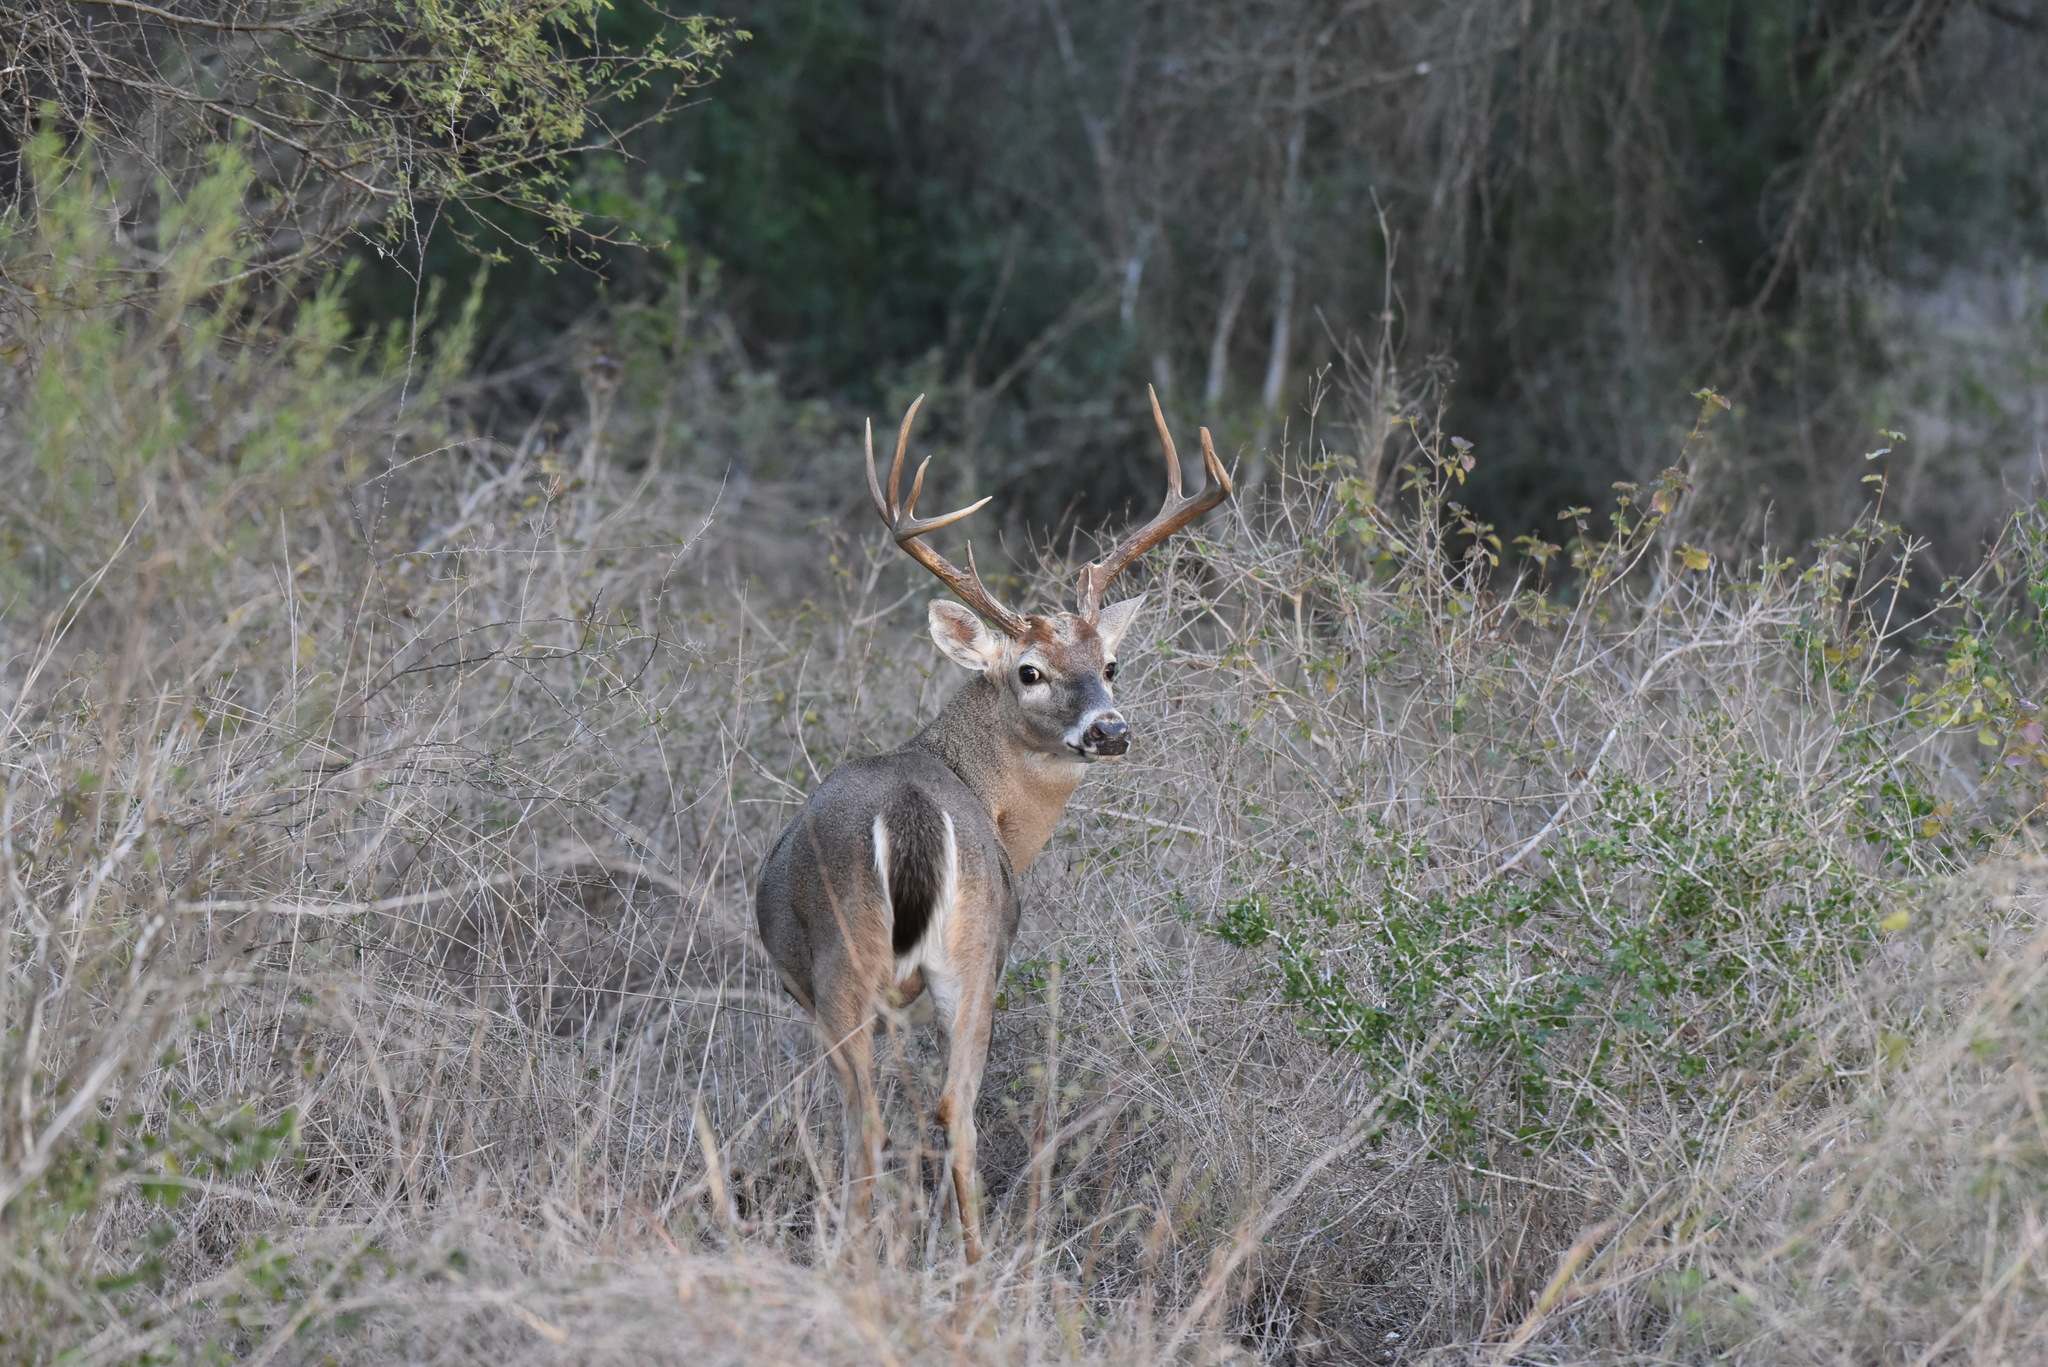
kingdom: Animalia
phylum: Chordata
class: Mammalia
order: Artiodactyla
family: Cervidae
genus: Odocoileus
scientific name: Odocoileus virginianus
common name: White-tailed deer
